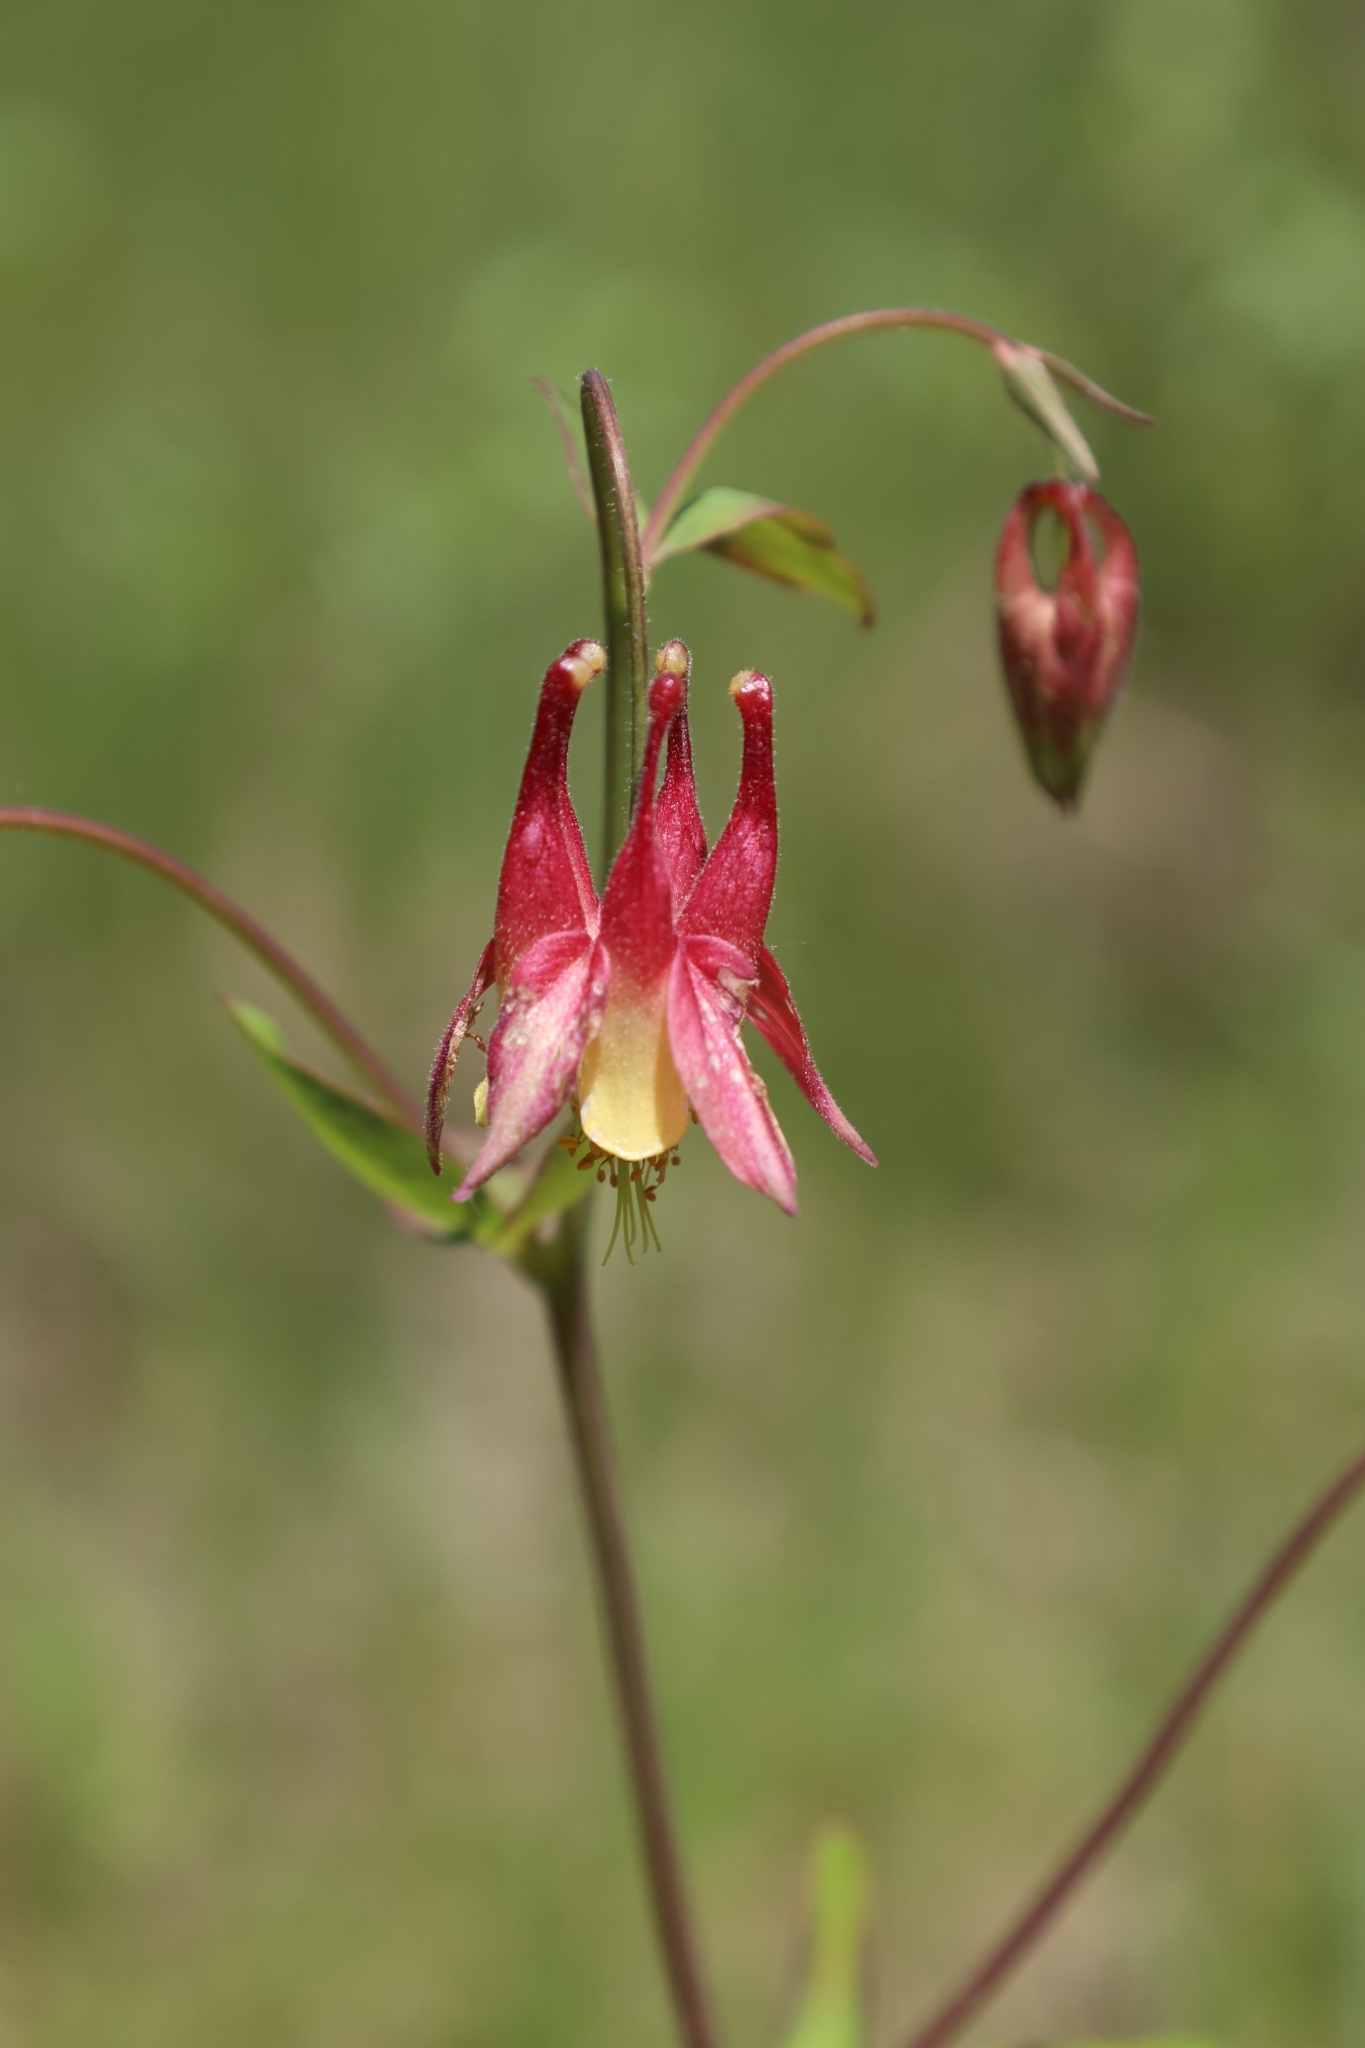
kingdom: Plantae
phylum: Tracheophyta
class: Magnoliopsida
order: Ranunculales
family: Ranunculaceae
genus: Aquilegia
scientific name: Aquilegia canadensis
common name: American columbine
